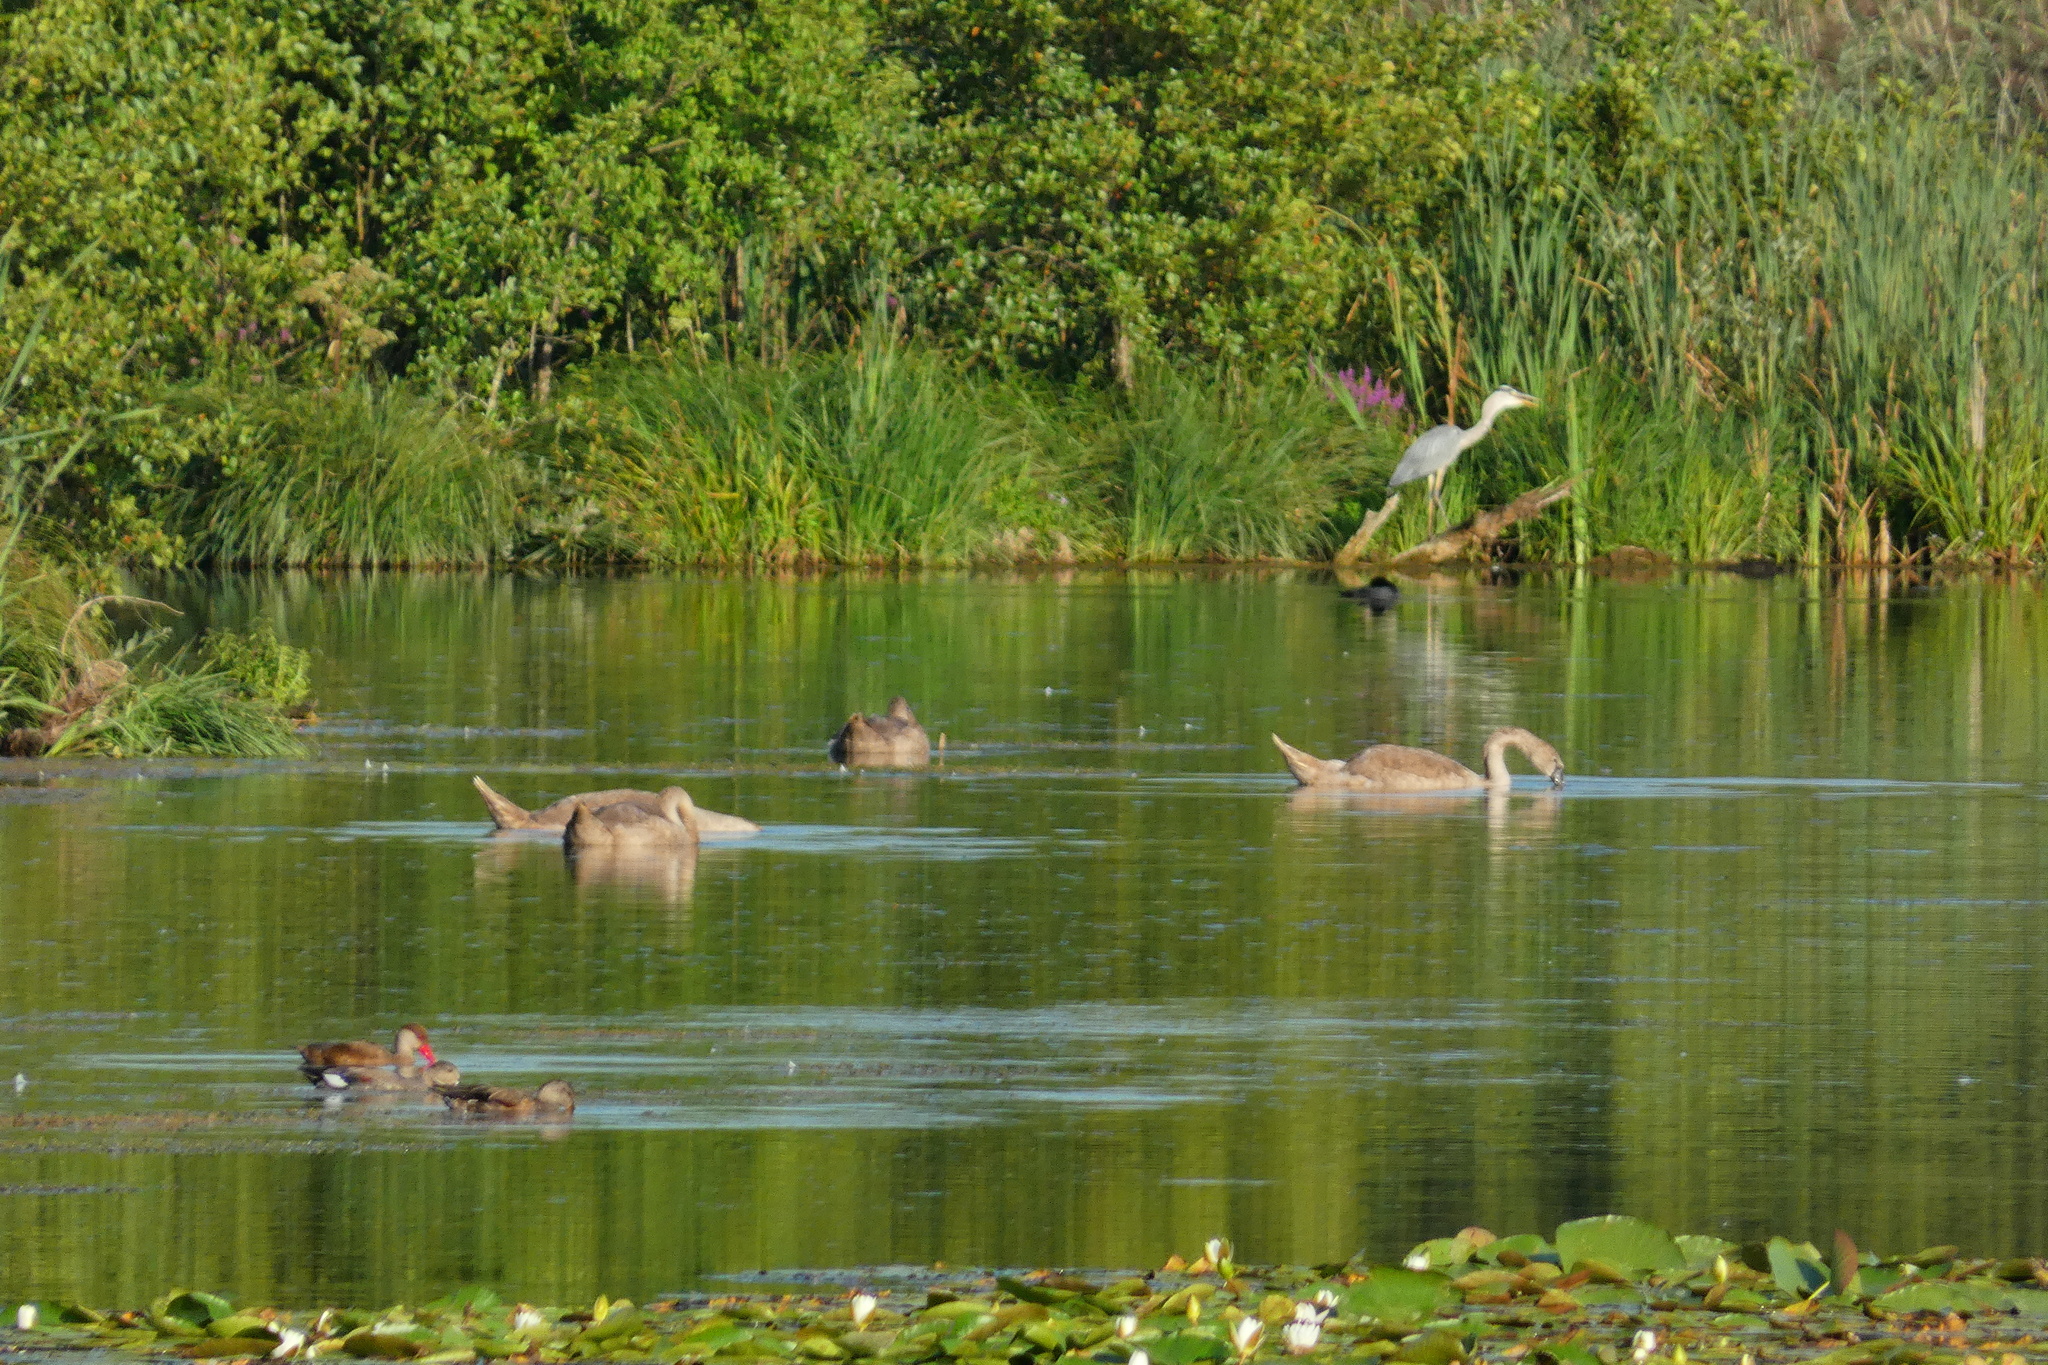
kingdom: Animalia
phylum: Chordata
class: Aves
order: Anseriformes
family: Anatidae
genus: Netta
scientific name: Netta rufina
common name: Red-crested pochard
